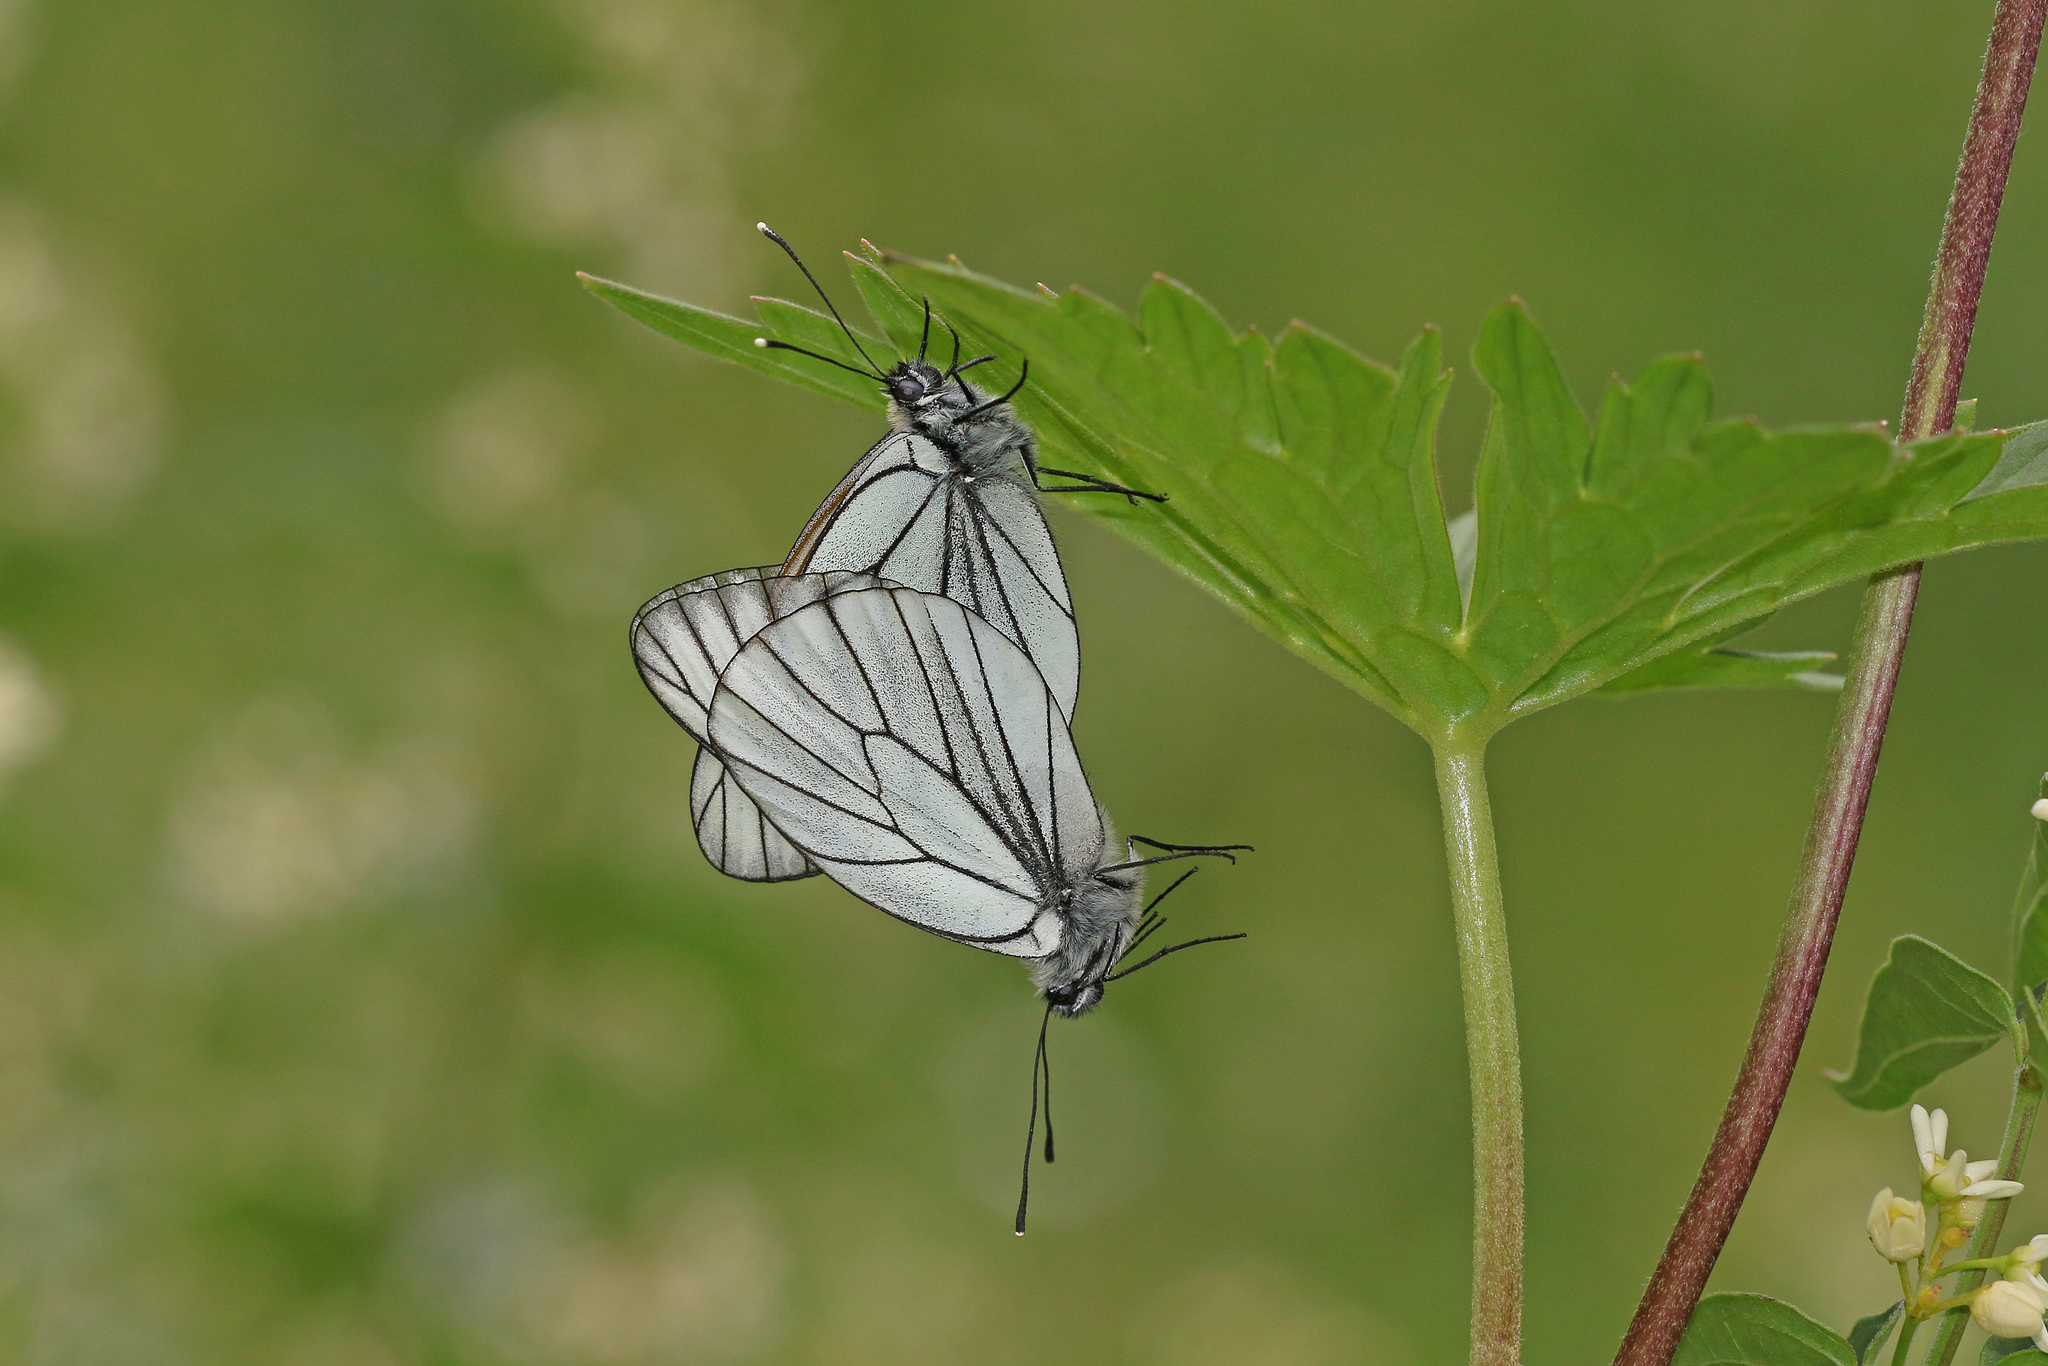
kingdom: Animalia
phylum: Arthropoda
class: Insecta
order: Lepidoptera
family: Pieridae
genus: Aporia
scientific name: Aporia crataegi
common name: Black-veined white
